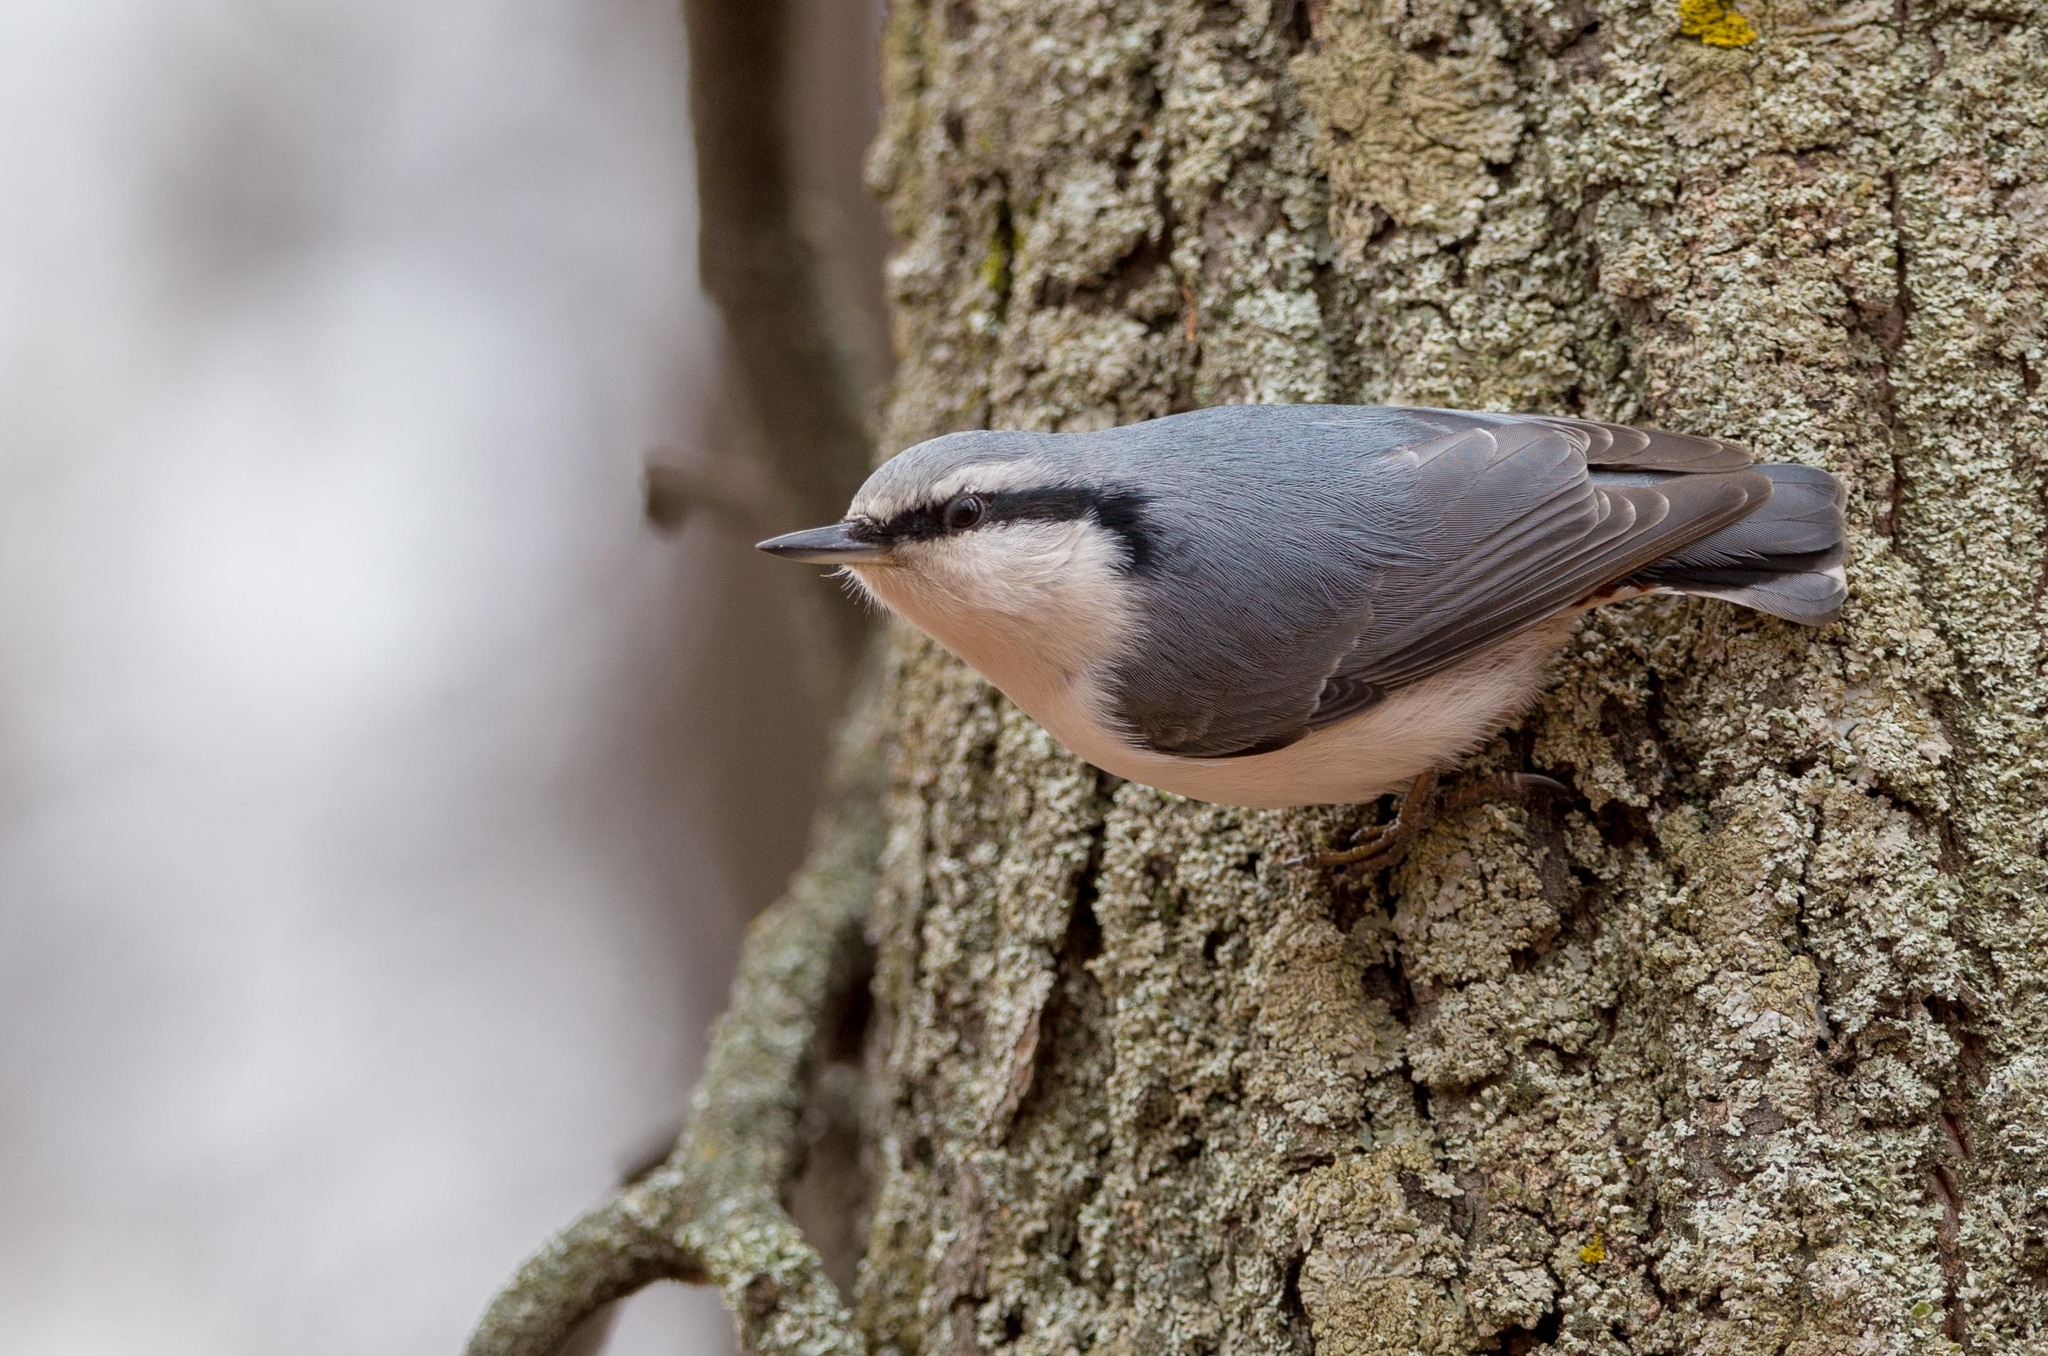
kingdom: Animalia
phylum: Chordata
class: Aves
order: Passeriformes
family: Sittidae
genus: Sitta
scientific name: Sitta europaea
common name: Eurasian nuthatch
